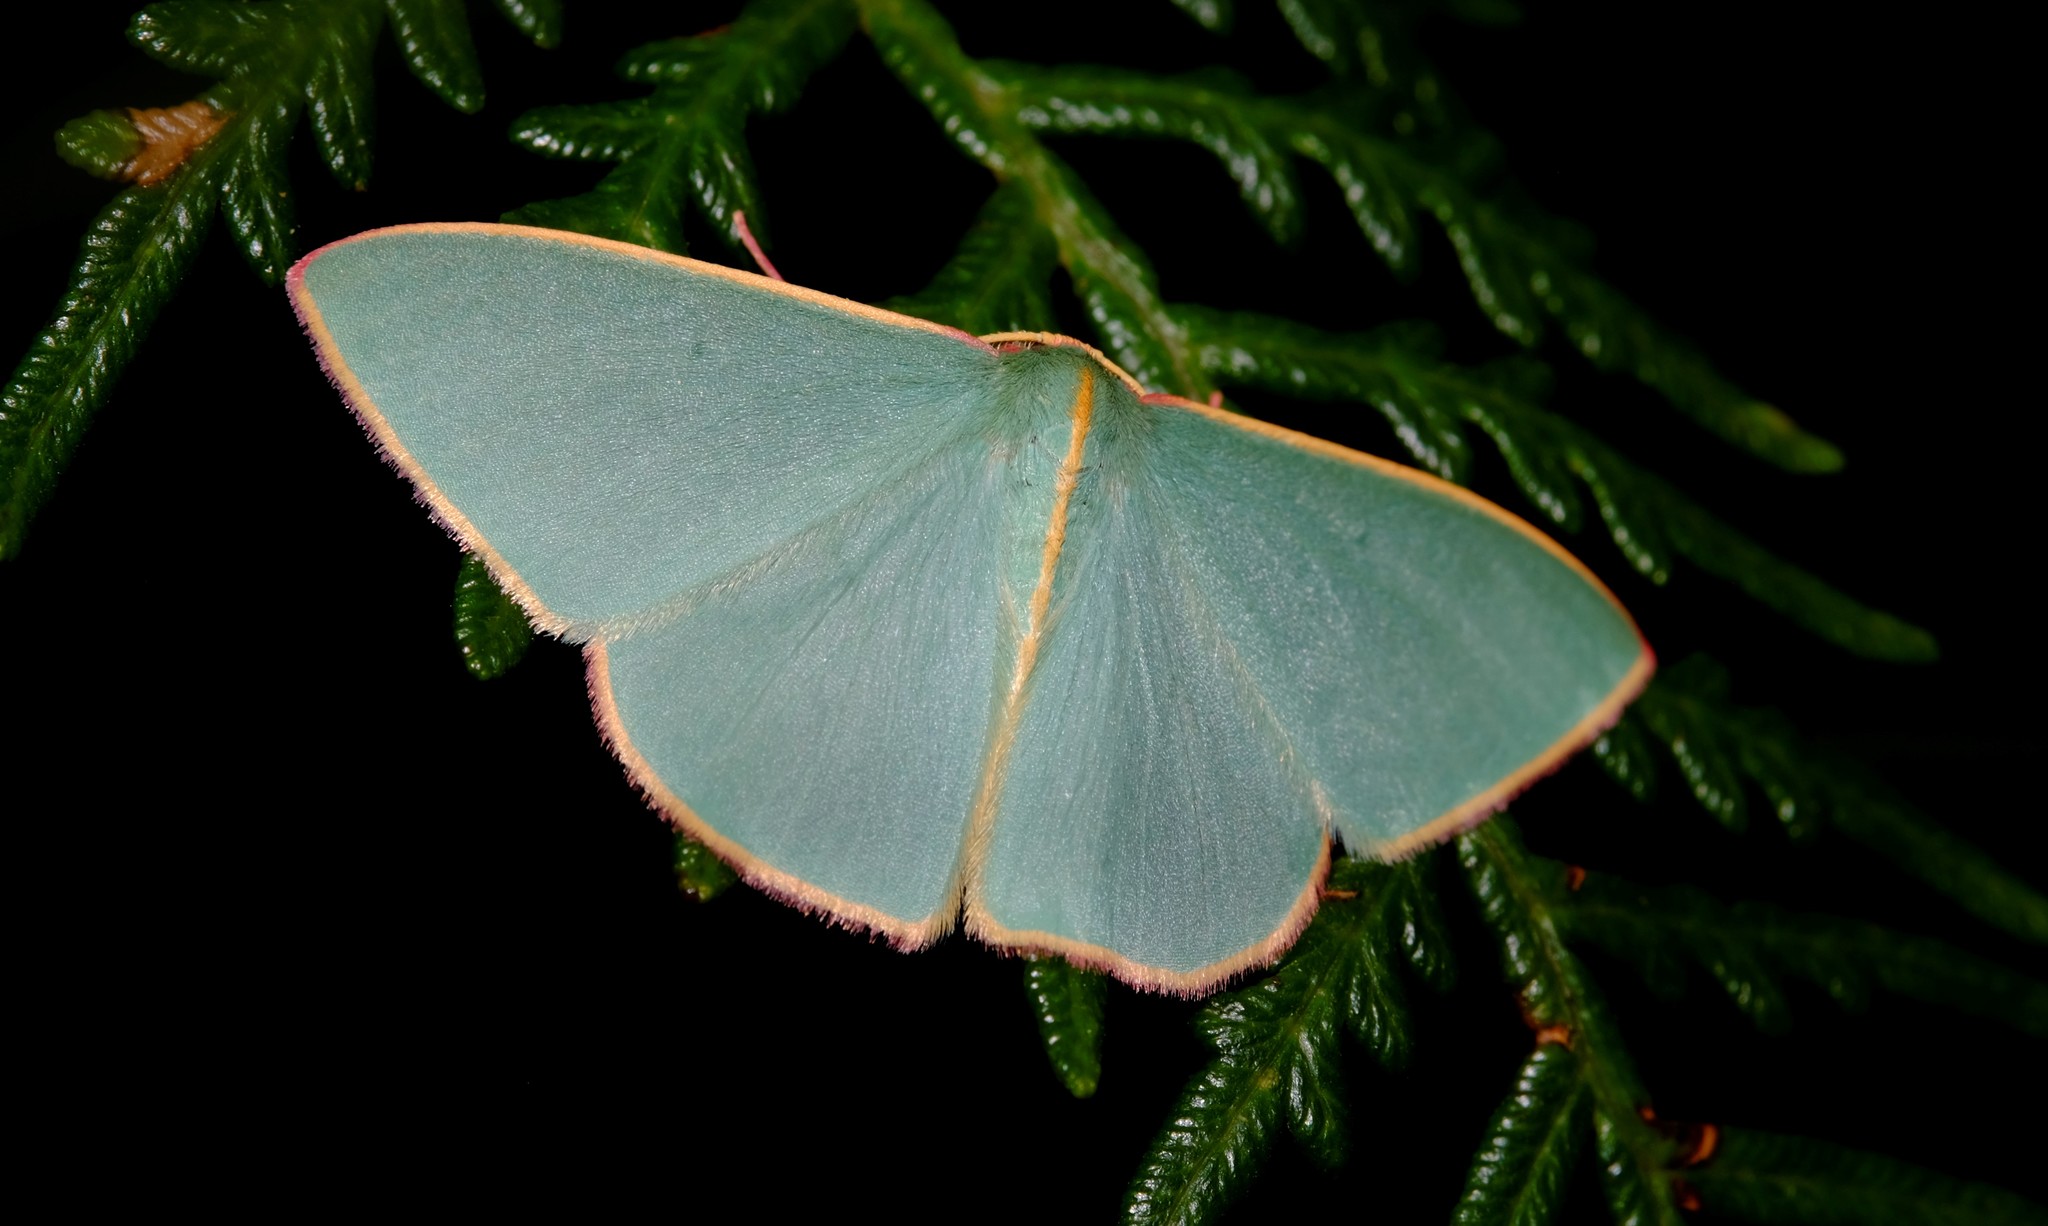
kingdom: Animalia
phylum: Arthropoda
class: Insecta
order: Lepidoptera
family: Geometridae
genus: Chlorocoma
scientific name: Chlorocoma
